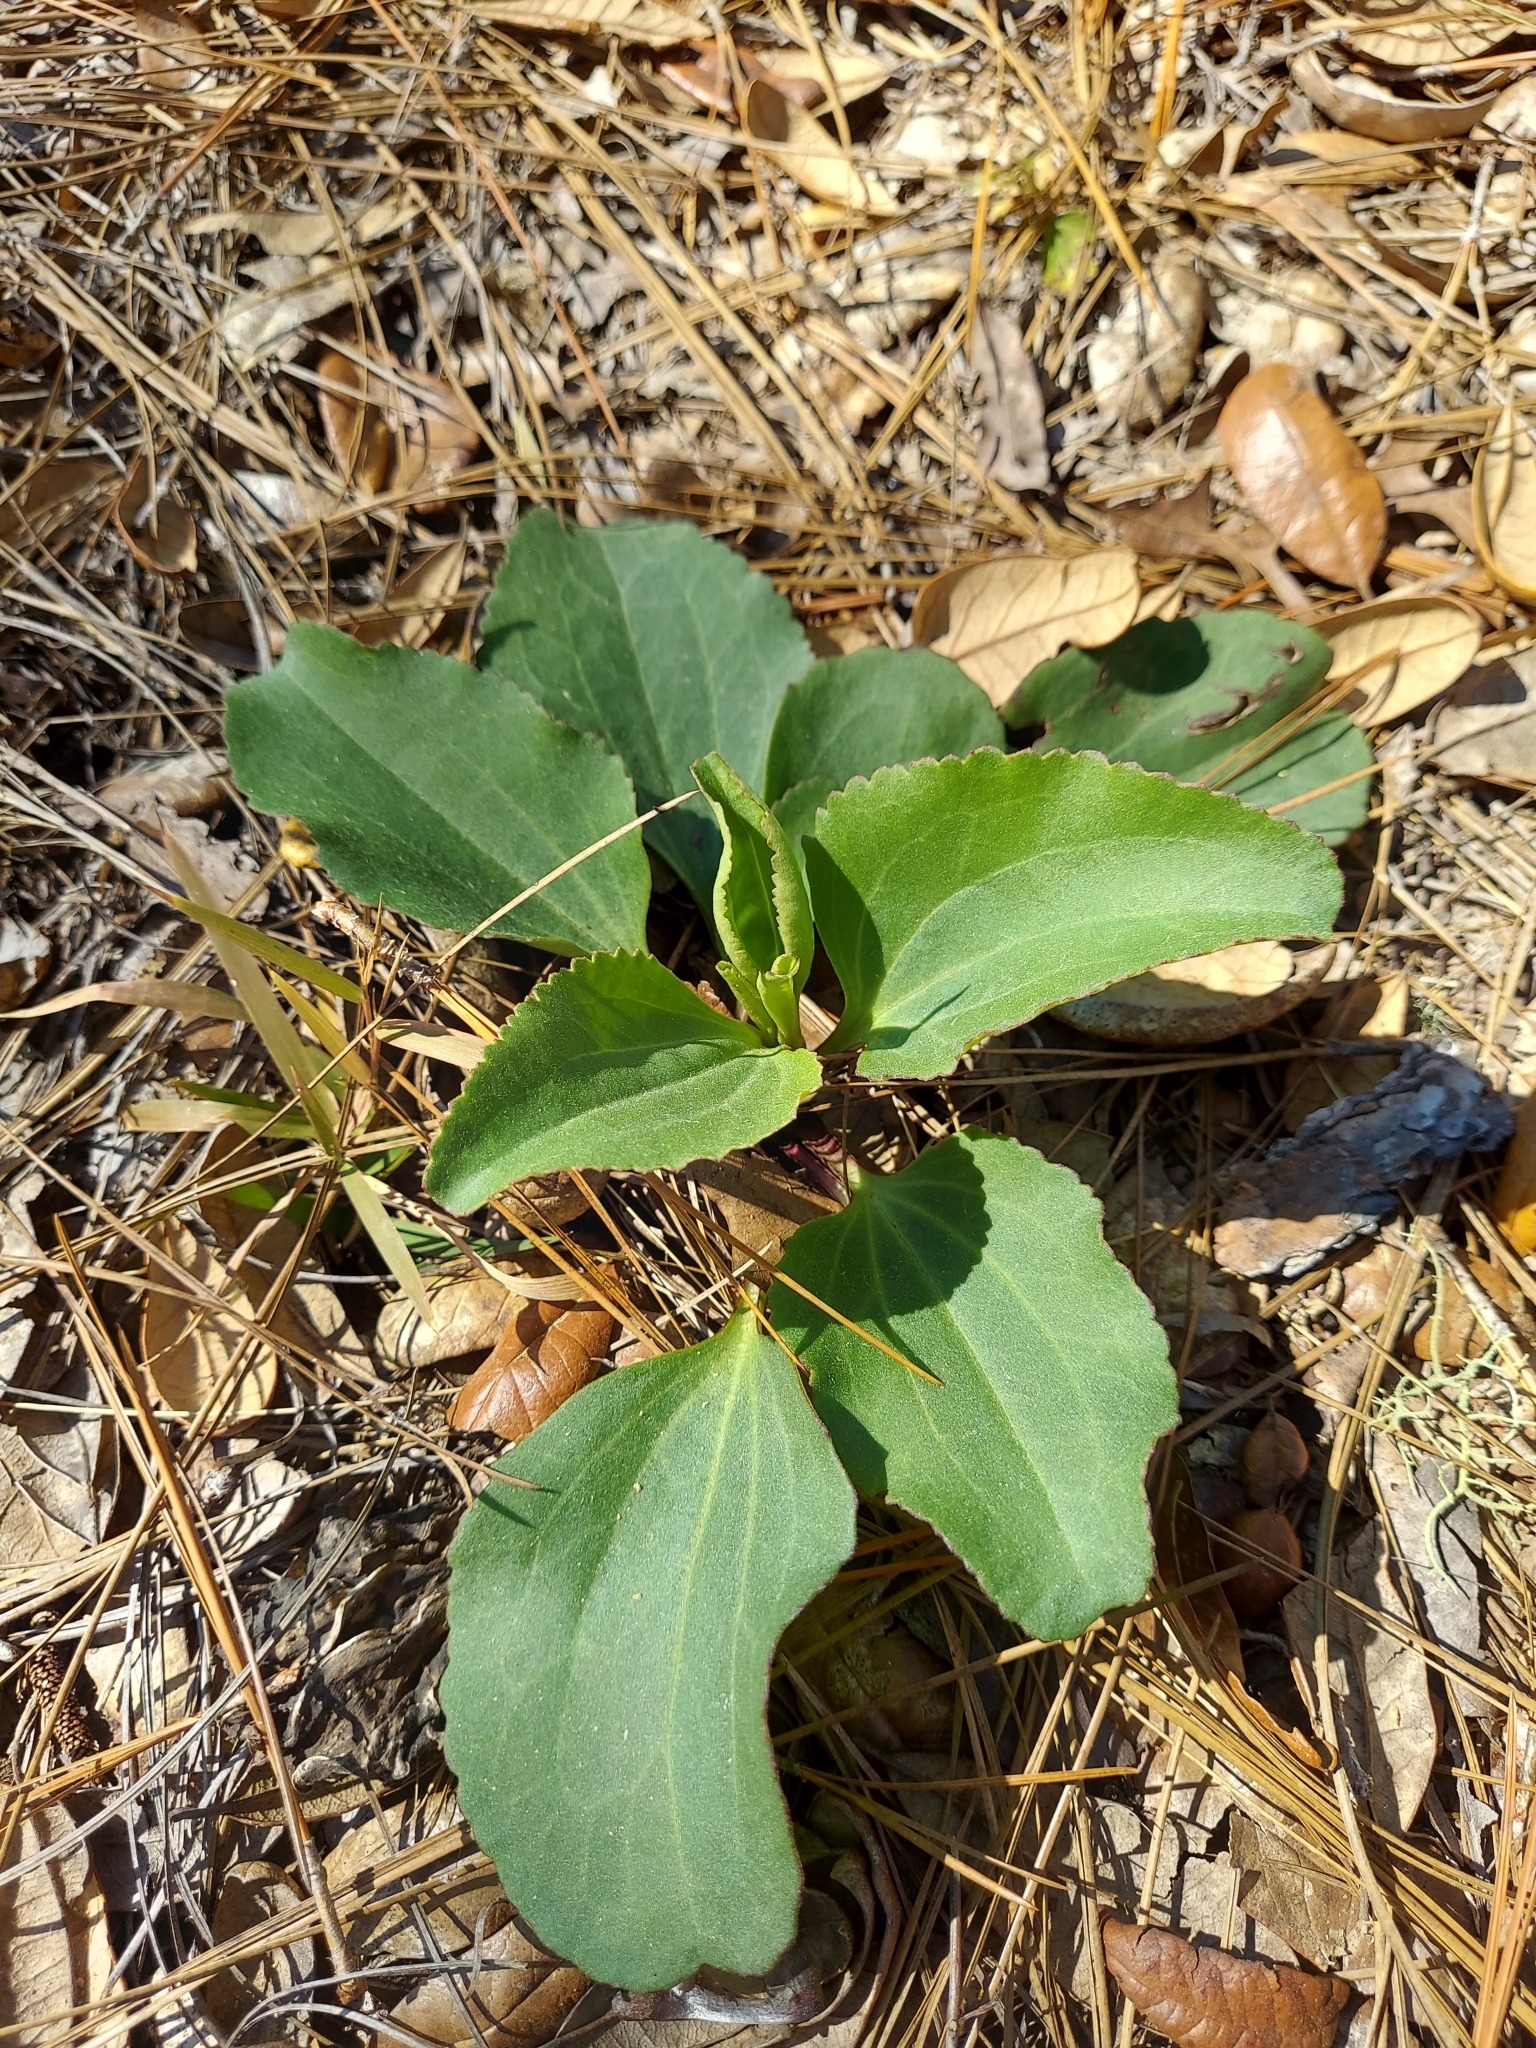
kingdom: Plantae
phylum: Tracheophyta
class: Magnoliopsida
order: Asterales
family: Asteraceae
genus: Arnoglossum
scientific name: Arnoglossum floridanum
